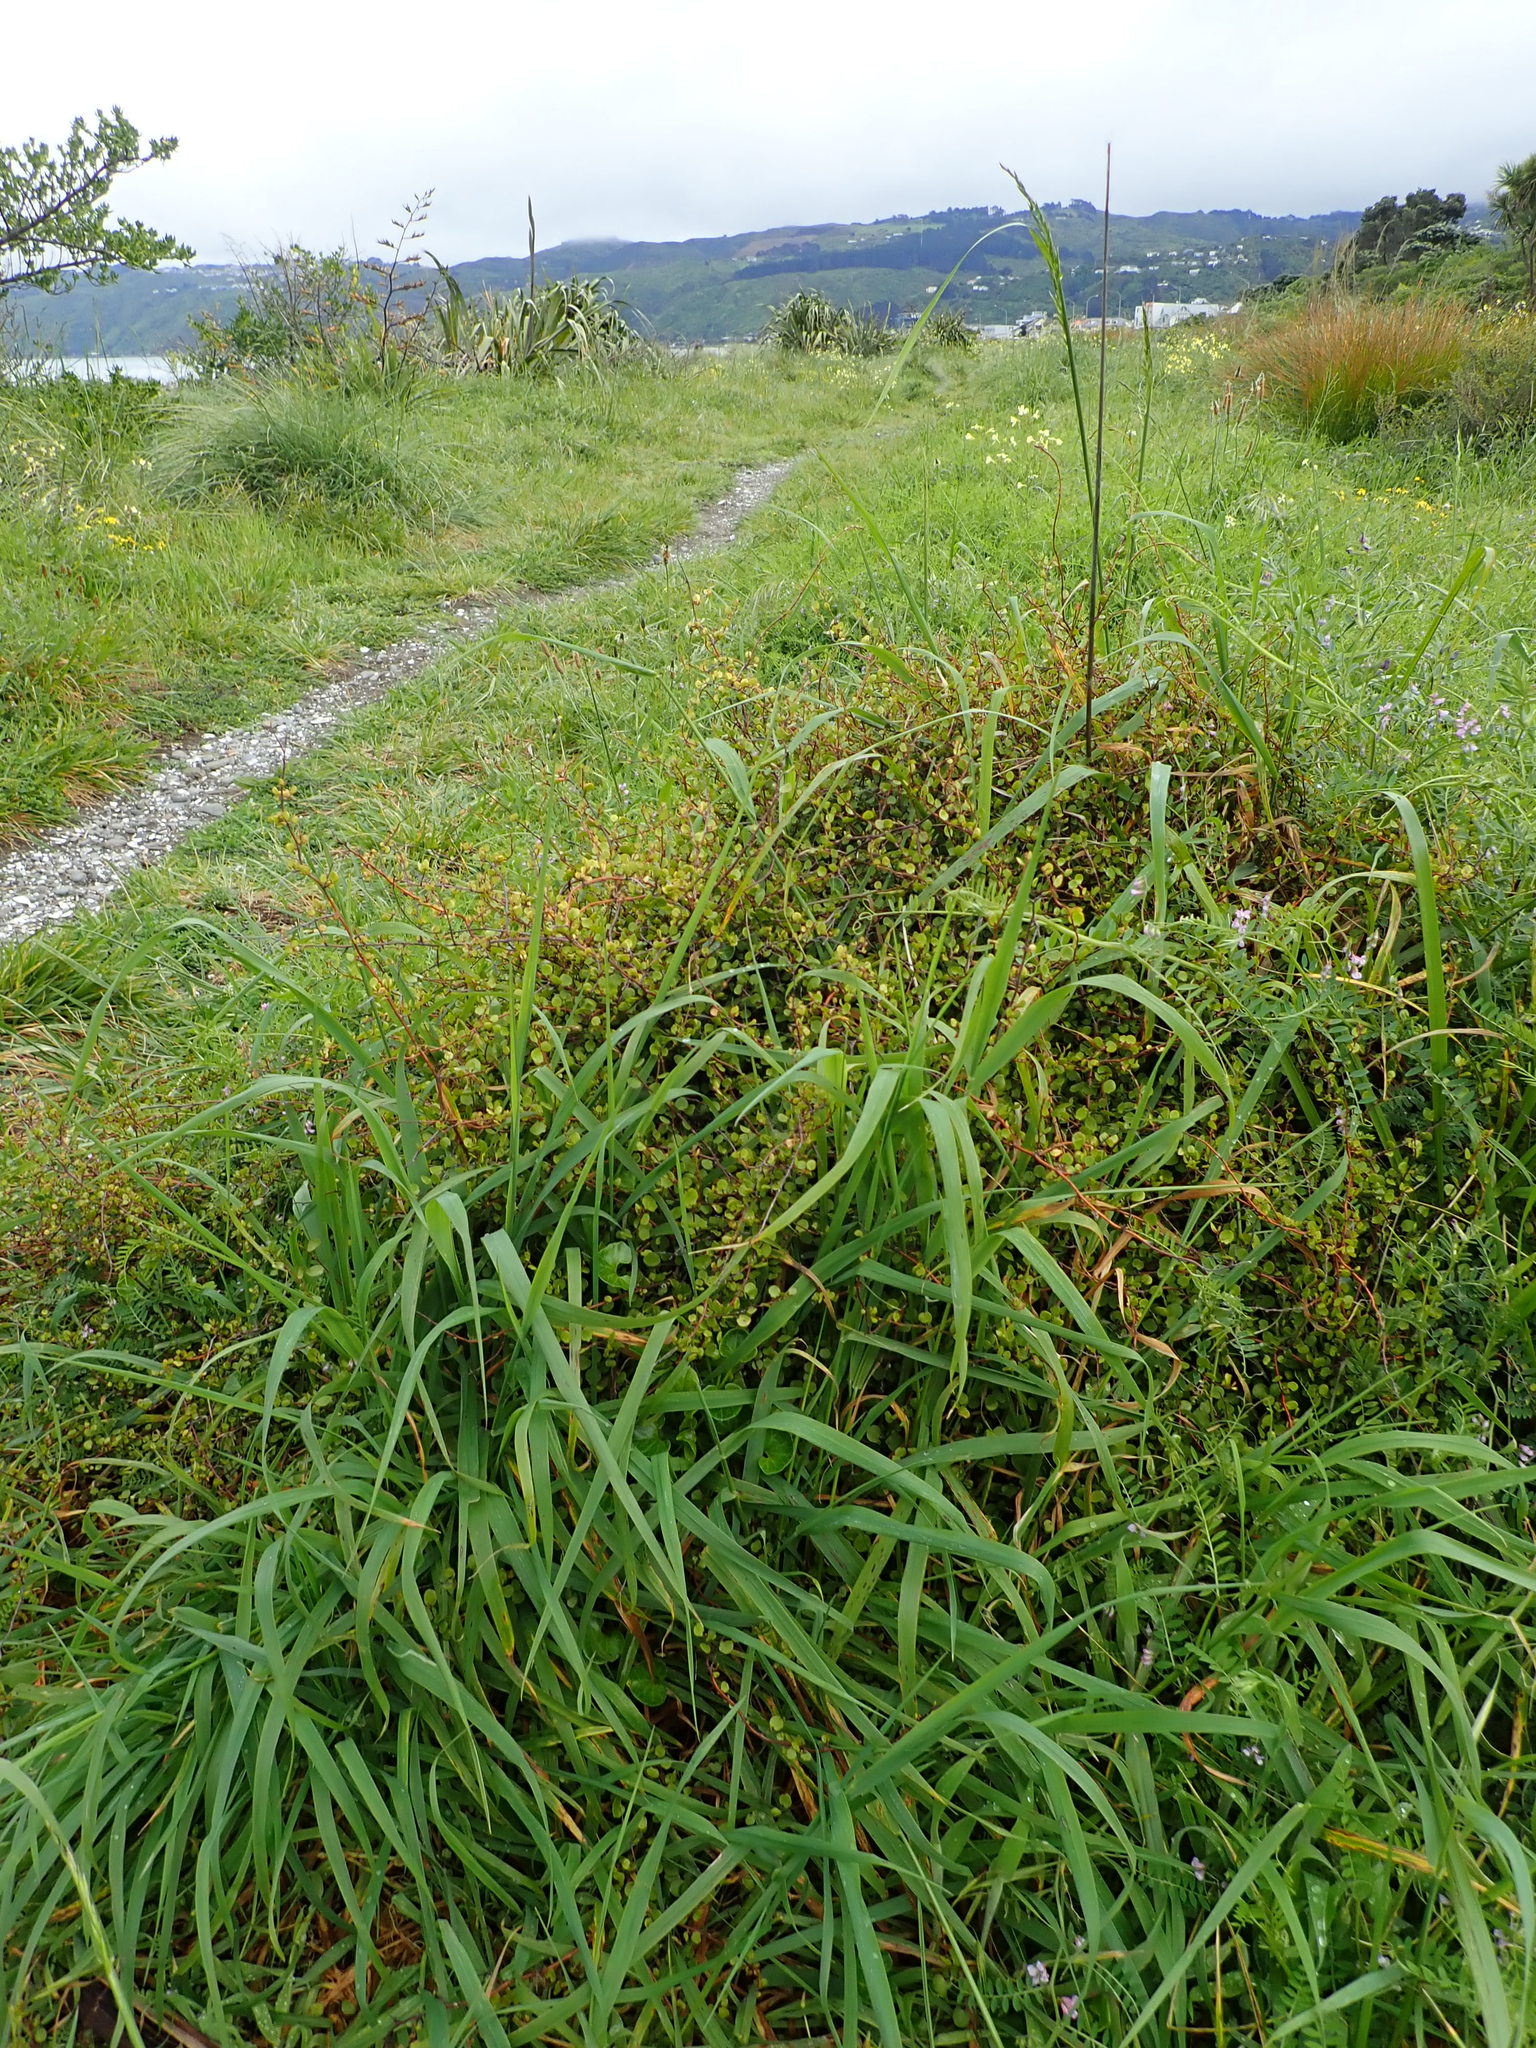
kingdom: Plantae
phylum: Tracheophyta
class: Magnoliopsida
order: Caryophyllales
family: Polygonaceae
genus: Muehlenbeckia
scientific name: Muehlenbeckia complexa
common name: Wireplant
